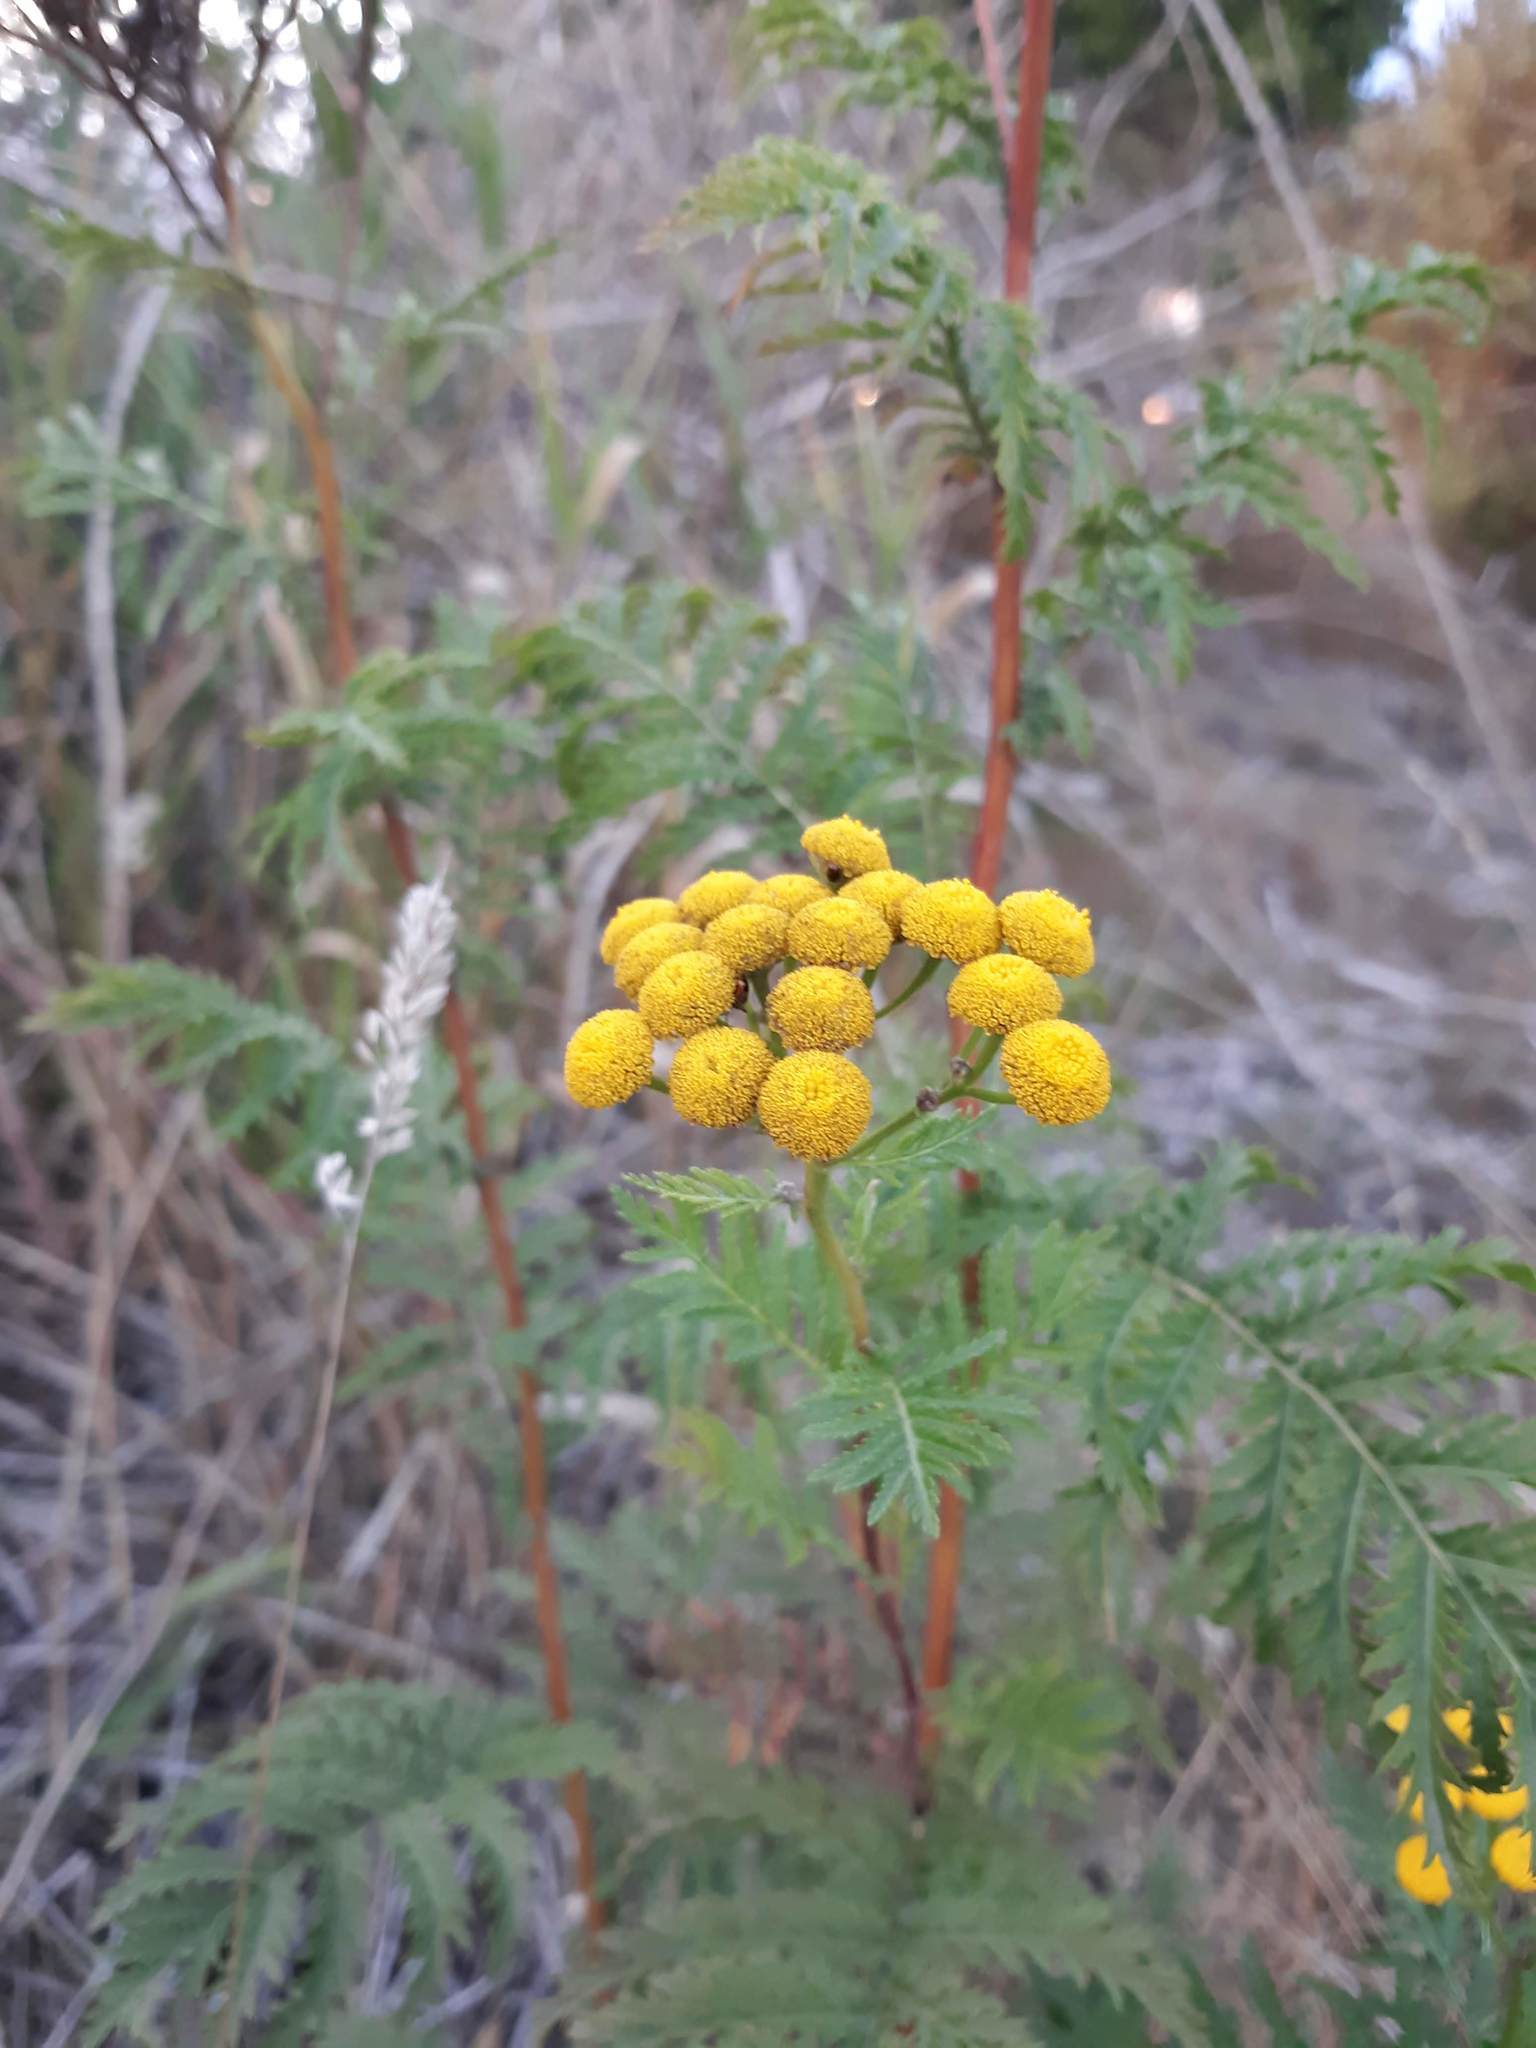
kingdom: Plantae
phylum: Tracheophyta
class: Magnoliopsida
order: Asterales
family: Asteraceae
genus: Tanacetum
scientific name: Tanacetum vulgare
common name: Common tansy
